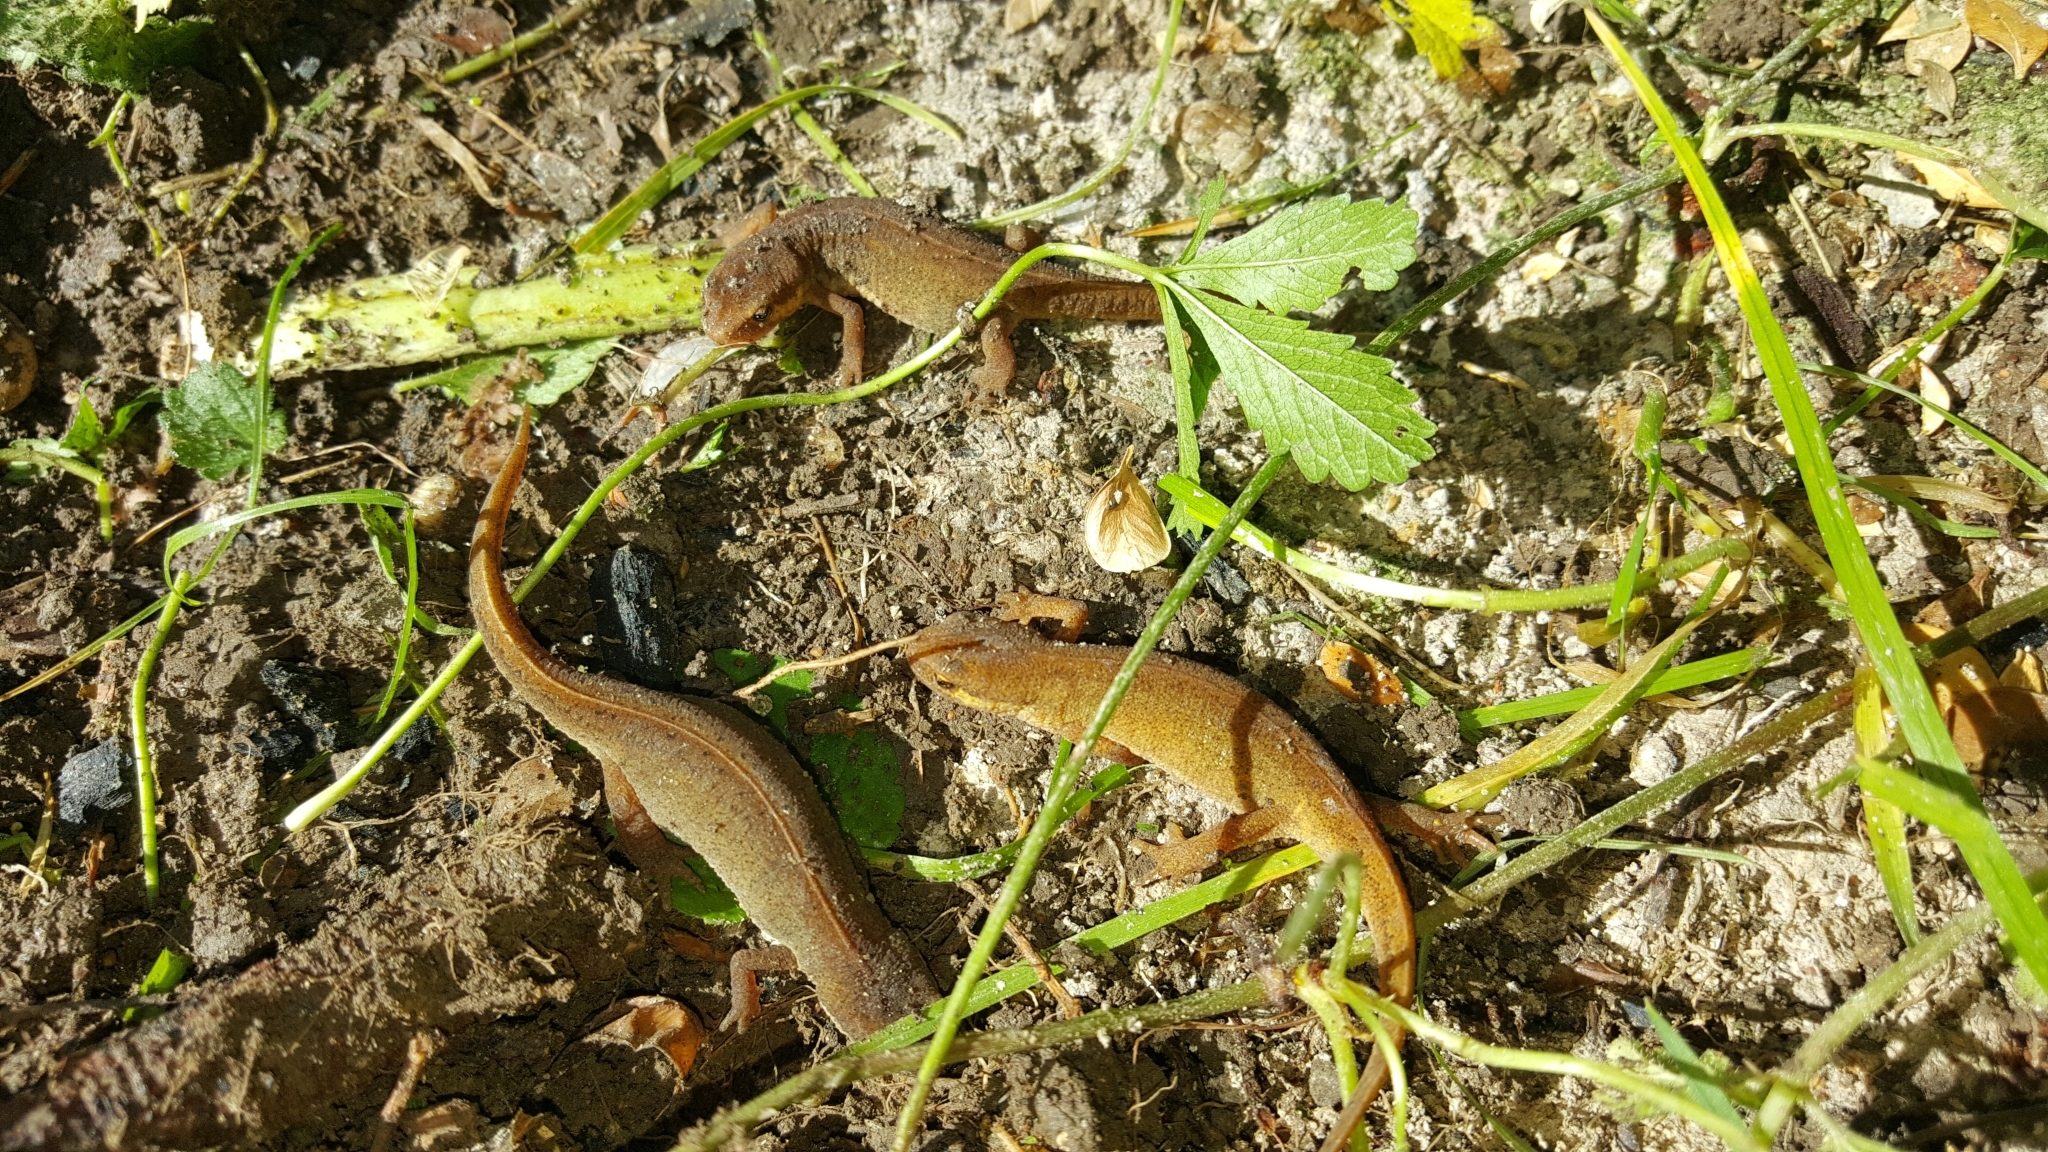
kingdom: Animalia
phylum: Chordata
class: Amphibia
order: Caudata
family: Salamandridae
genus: Lissotriton
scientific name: Lissotriton vulgaris
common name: Smooth newt
